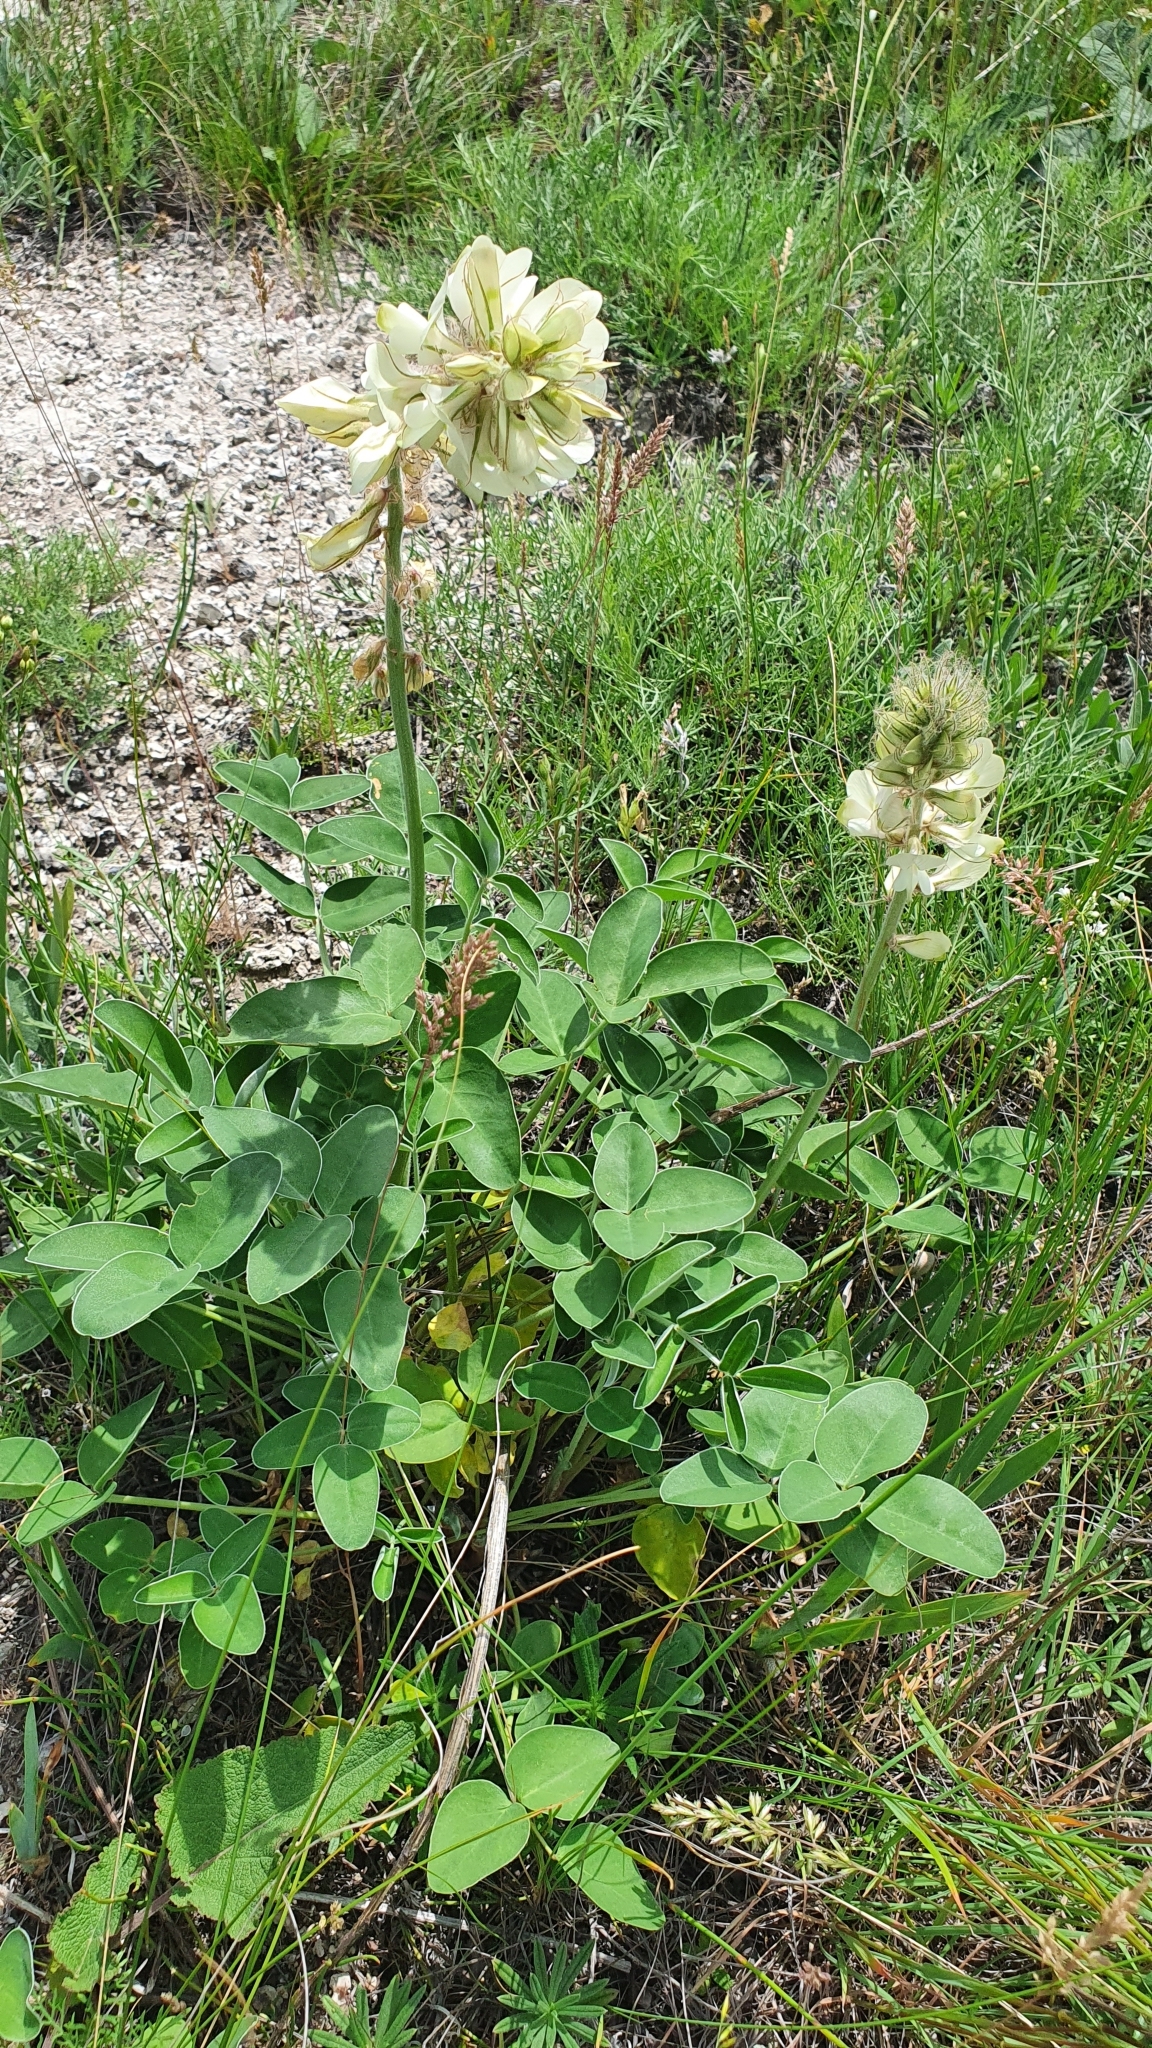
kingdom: Plantae
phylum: Tracheophyta
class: Magnoliopsida
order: Fabales
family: Fabaceae
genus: Hedysarum
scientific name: Hedysarum grandiflorum
